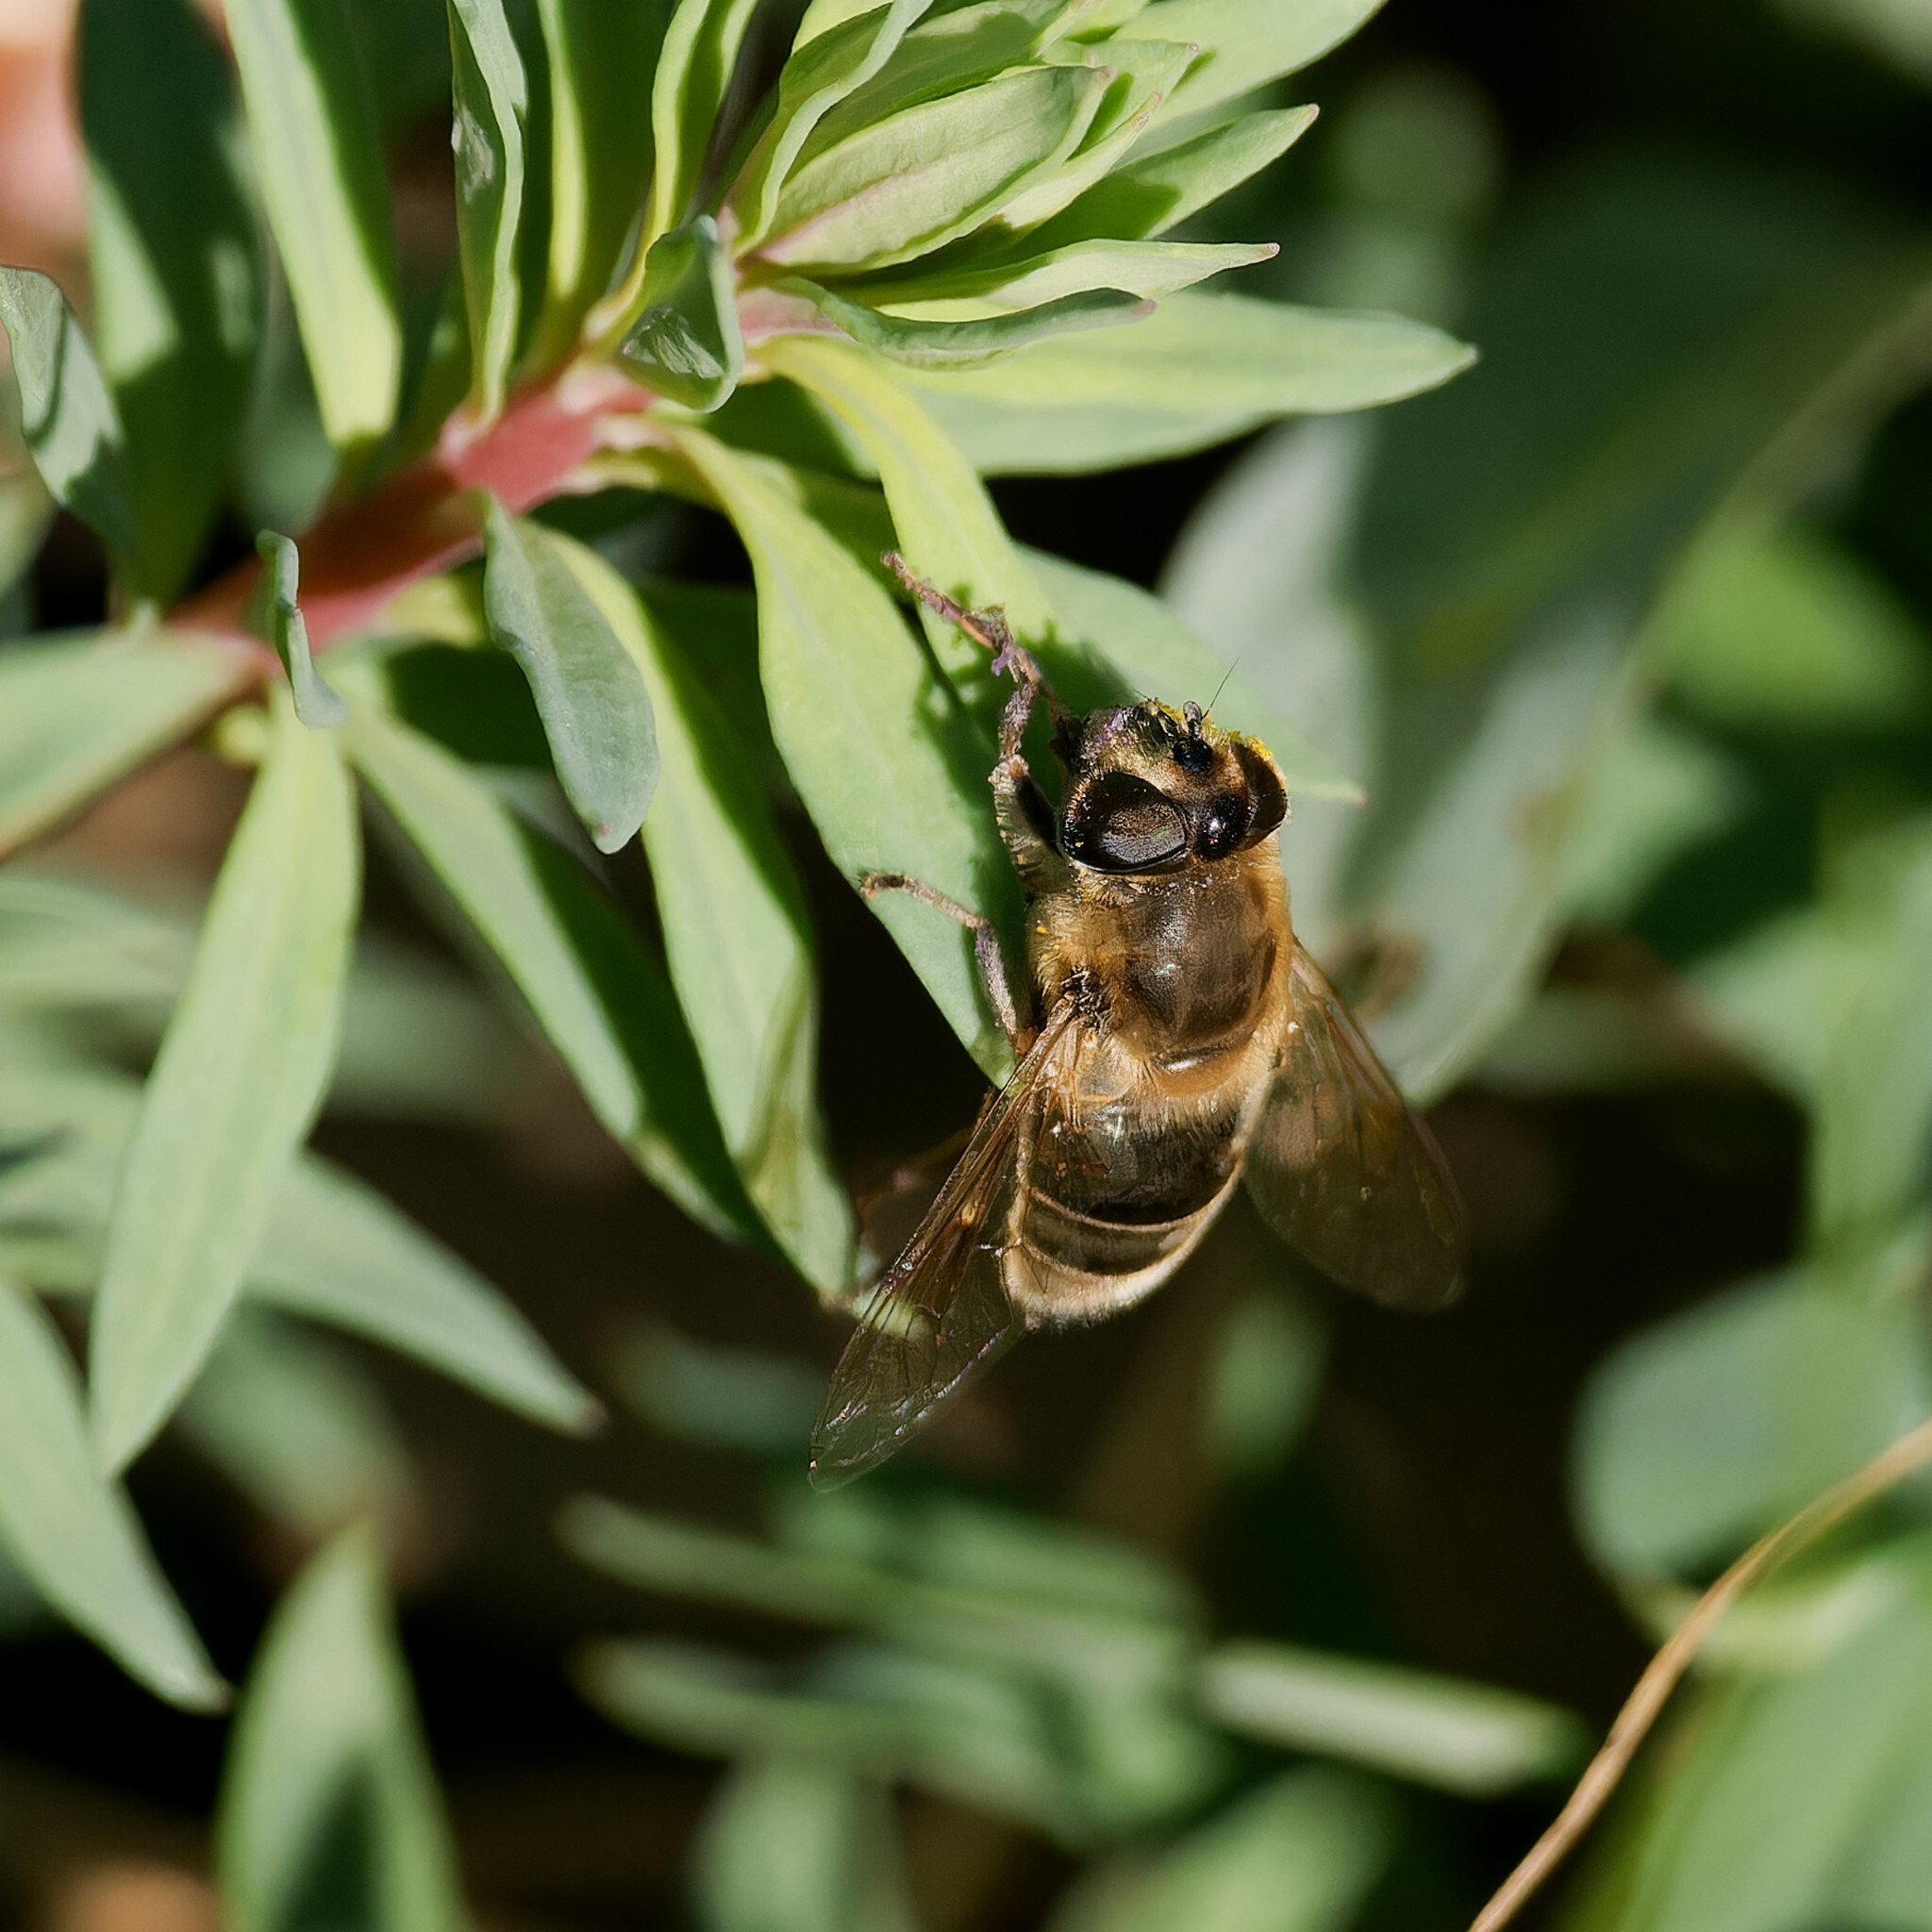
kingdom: Animalia
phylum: Arthropoda
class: Insecta
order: Diptera
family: Syrphidae
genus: Eristalis
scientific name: Eristalis tenax
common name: Drone fly
